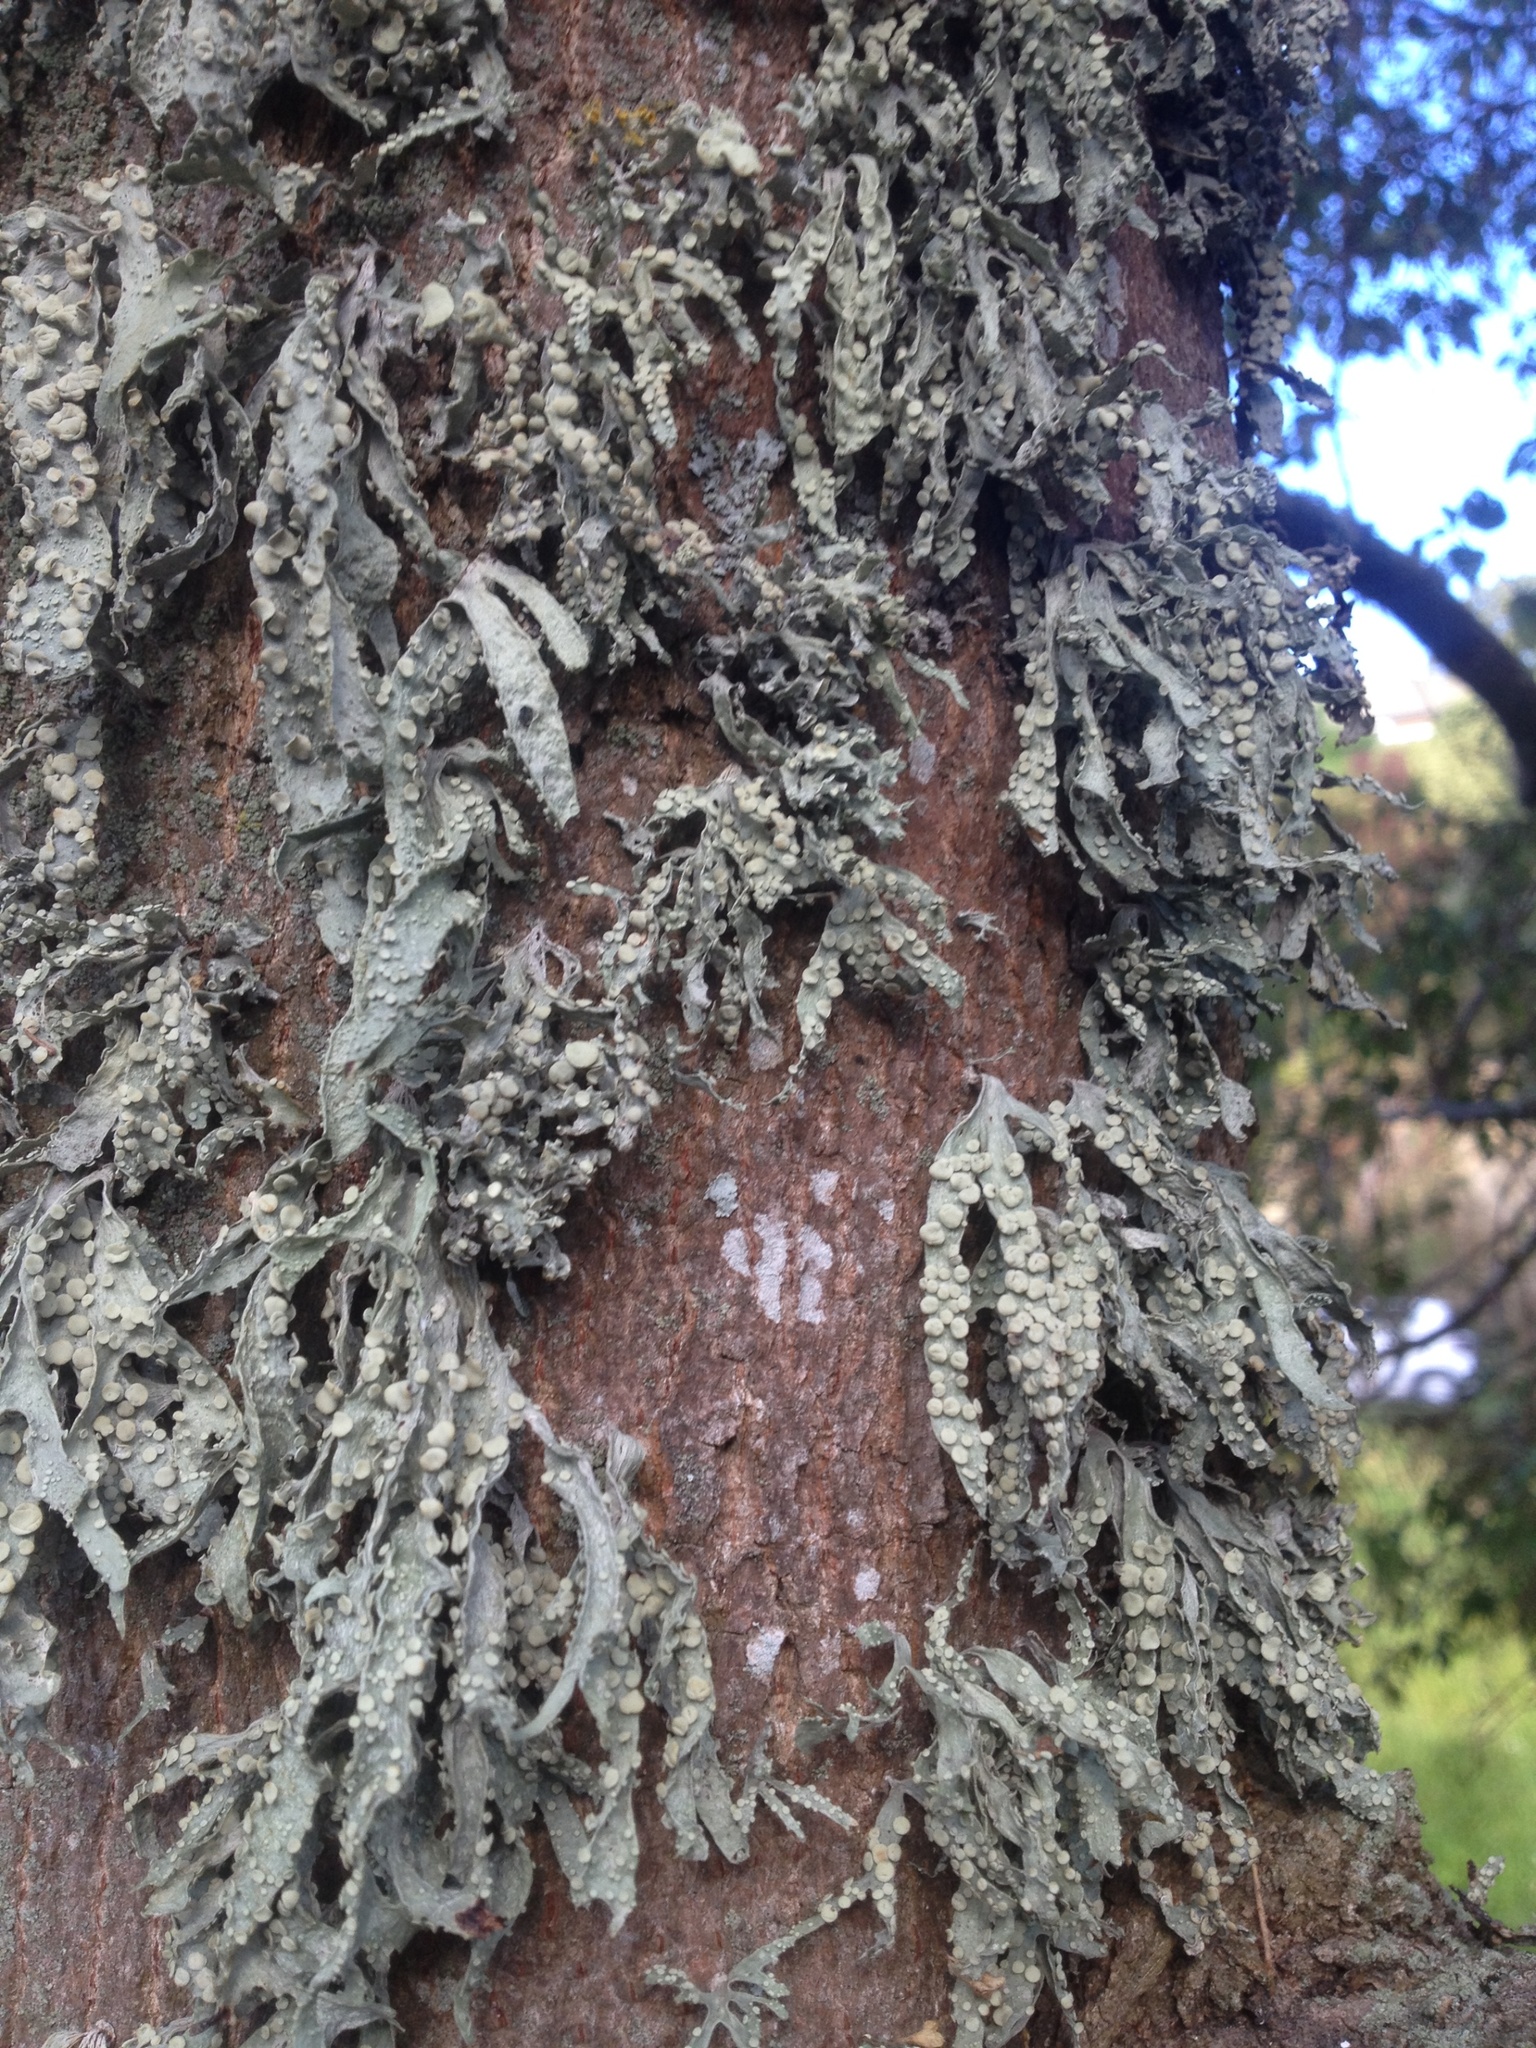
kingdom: Fungi
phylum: Ascomycota
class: Lecanoromycetes
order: Lecanorales
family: Ramalinaceae
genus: Ramalina
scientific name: Ramalina celastri
